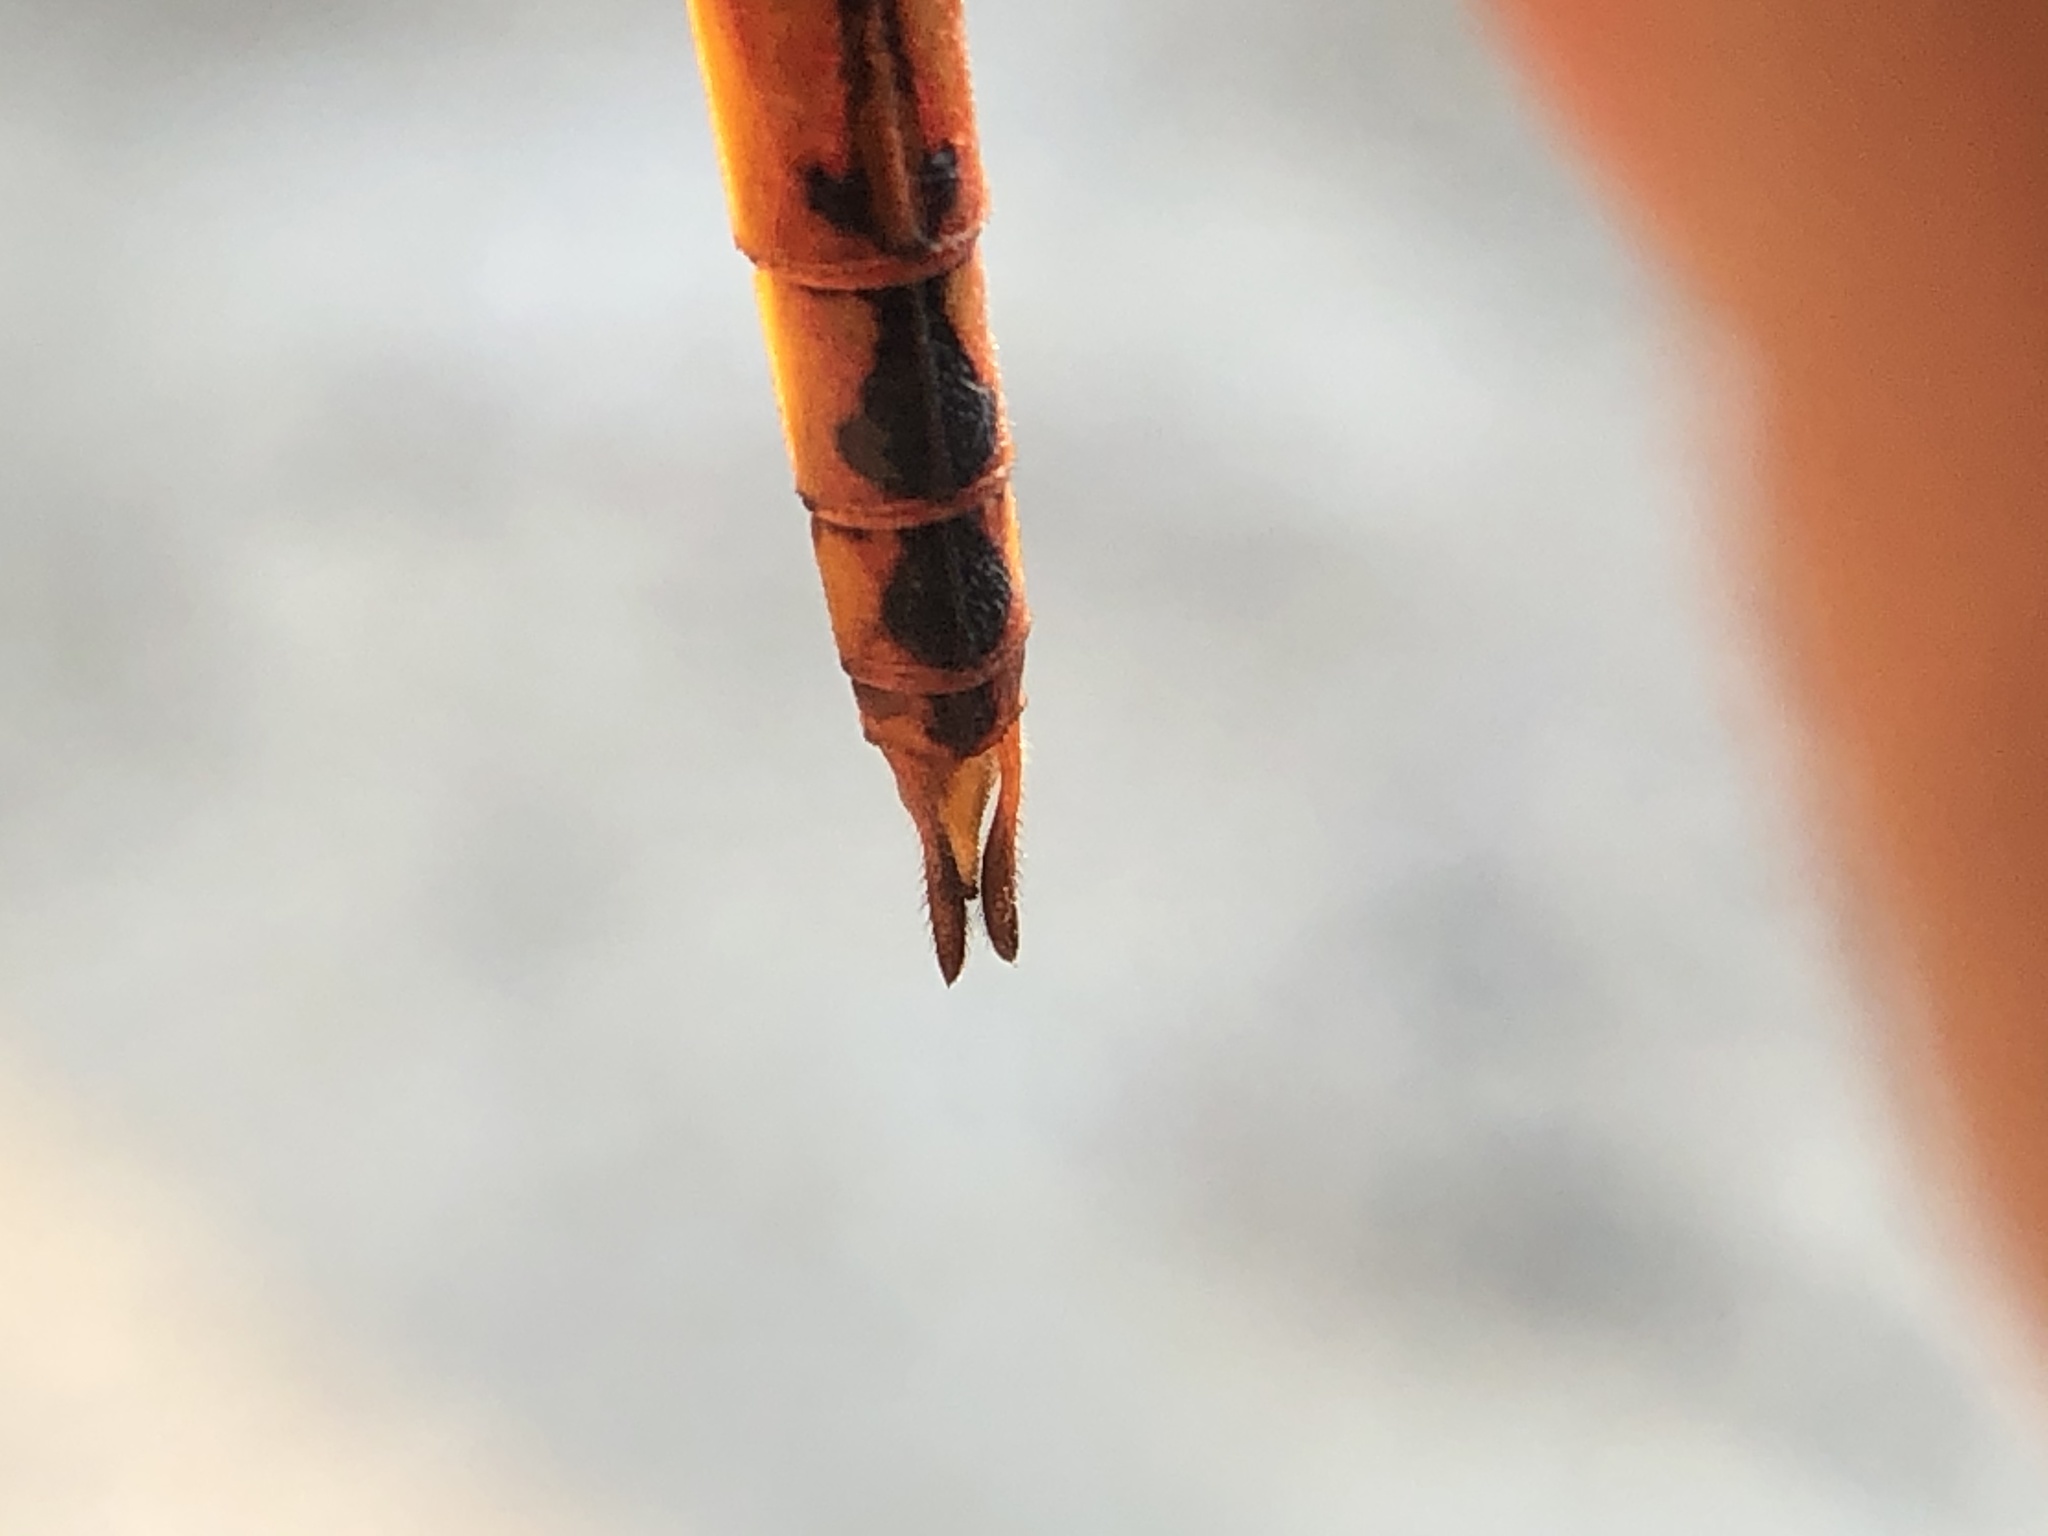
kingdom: Animalia
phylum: Arthropoda
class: Insecta
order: Odonata
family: Libellulidae
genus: Pantala
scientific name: Pantala flavescens
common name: Wandering glider
